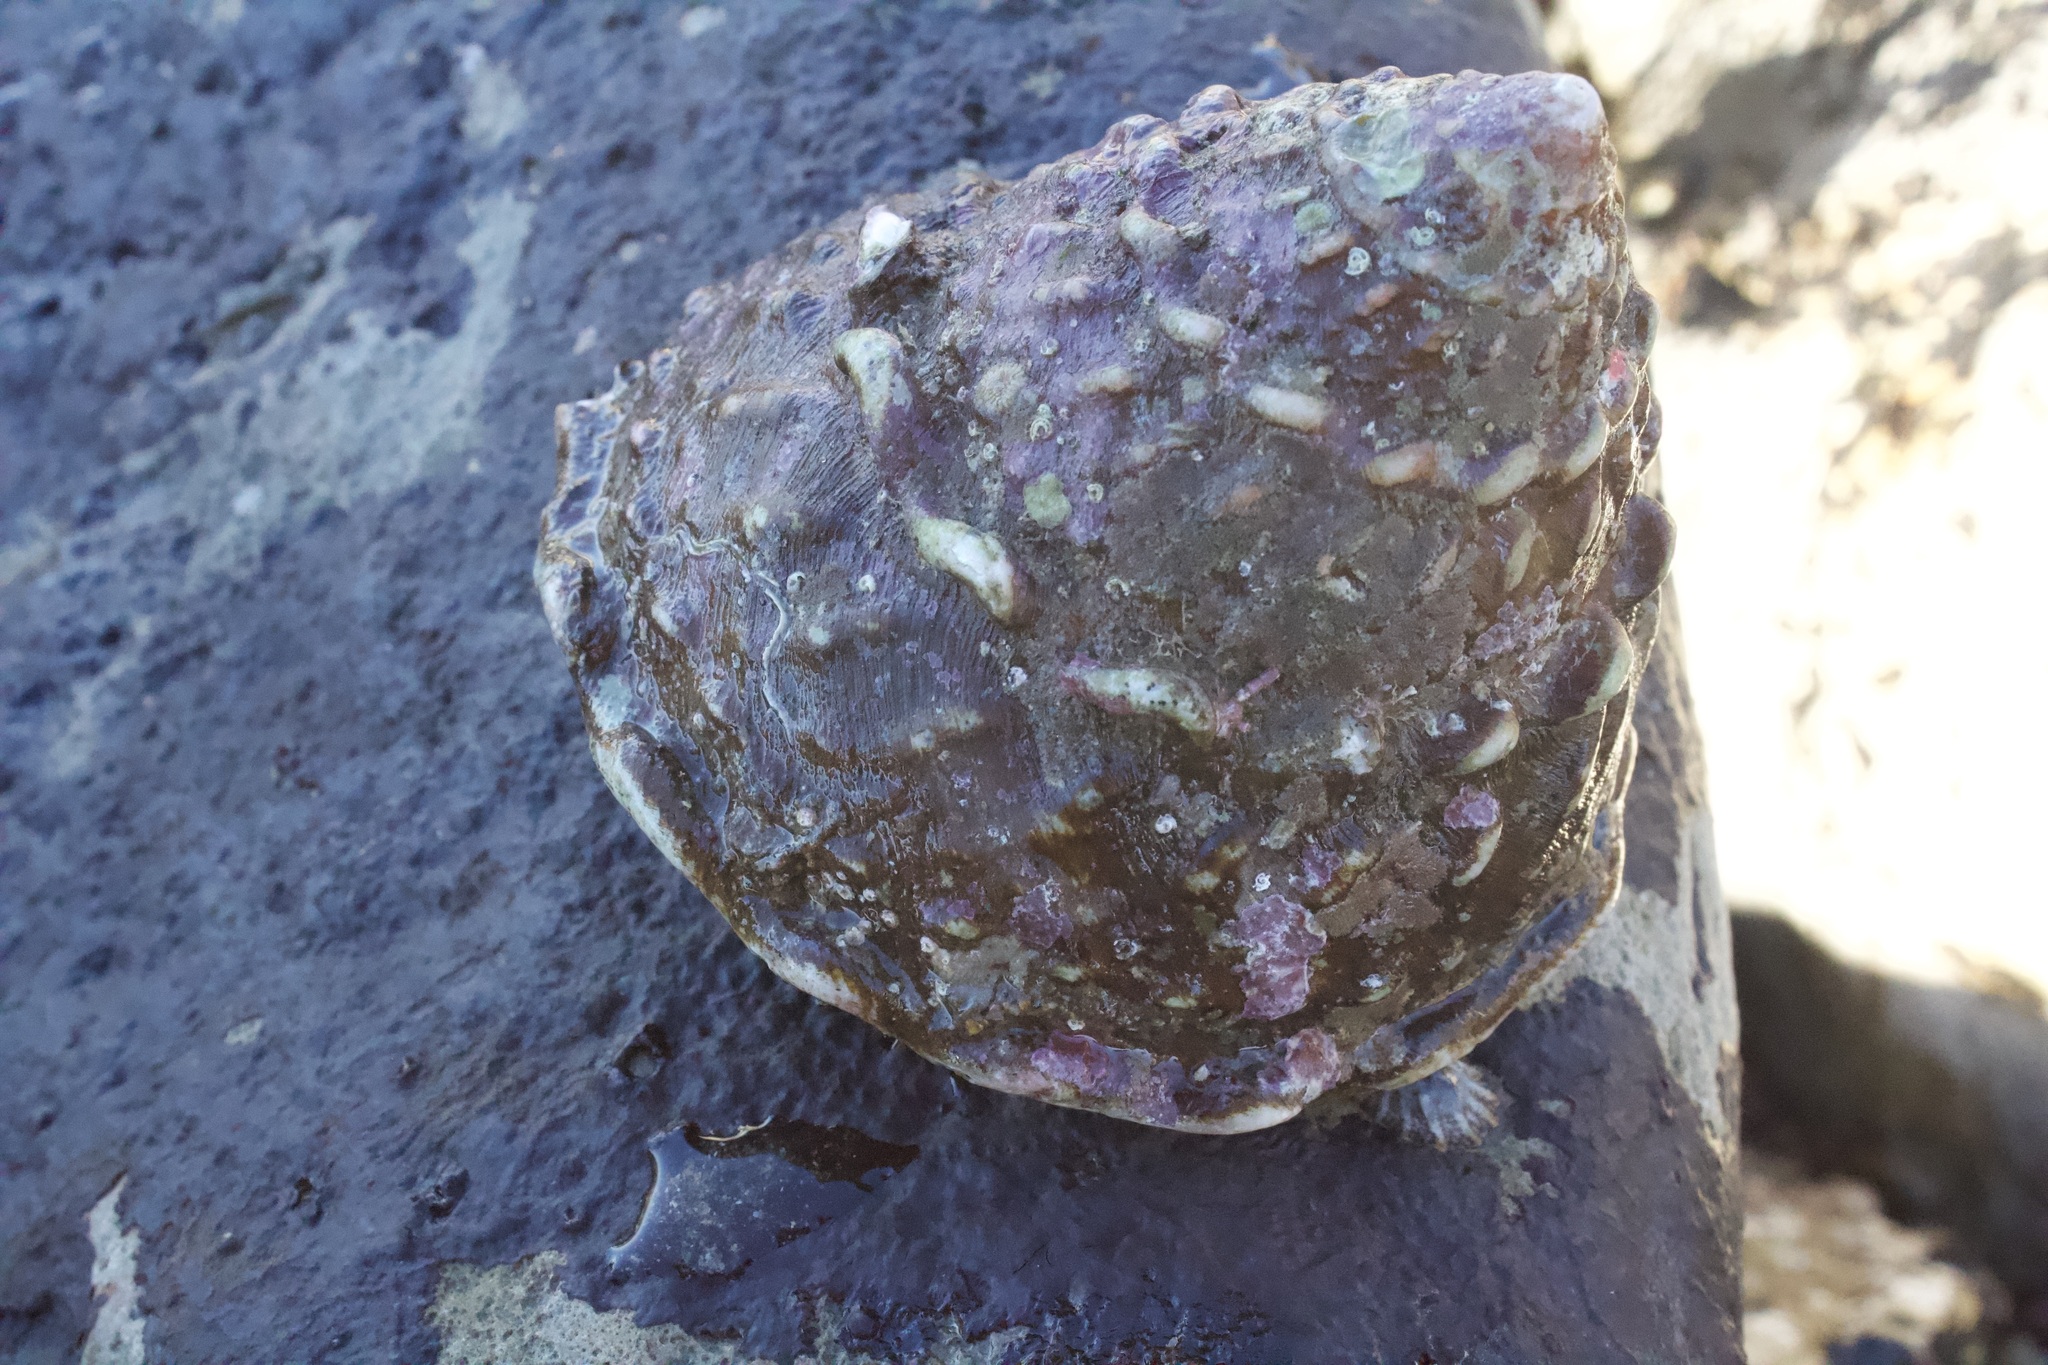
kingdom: Animalia
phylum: Mollusca
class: Gastropoda
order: Trochida
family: Turbinidae
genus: Megastraea
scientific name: Megastraea undosa
